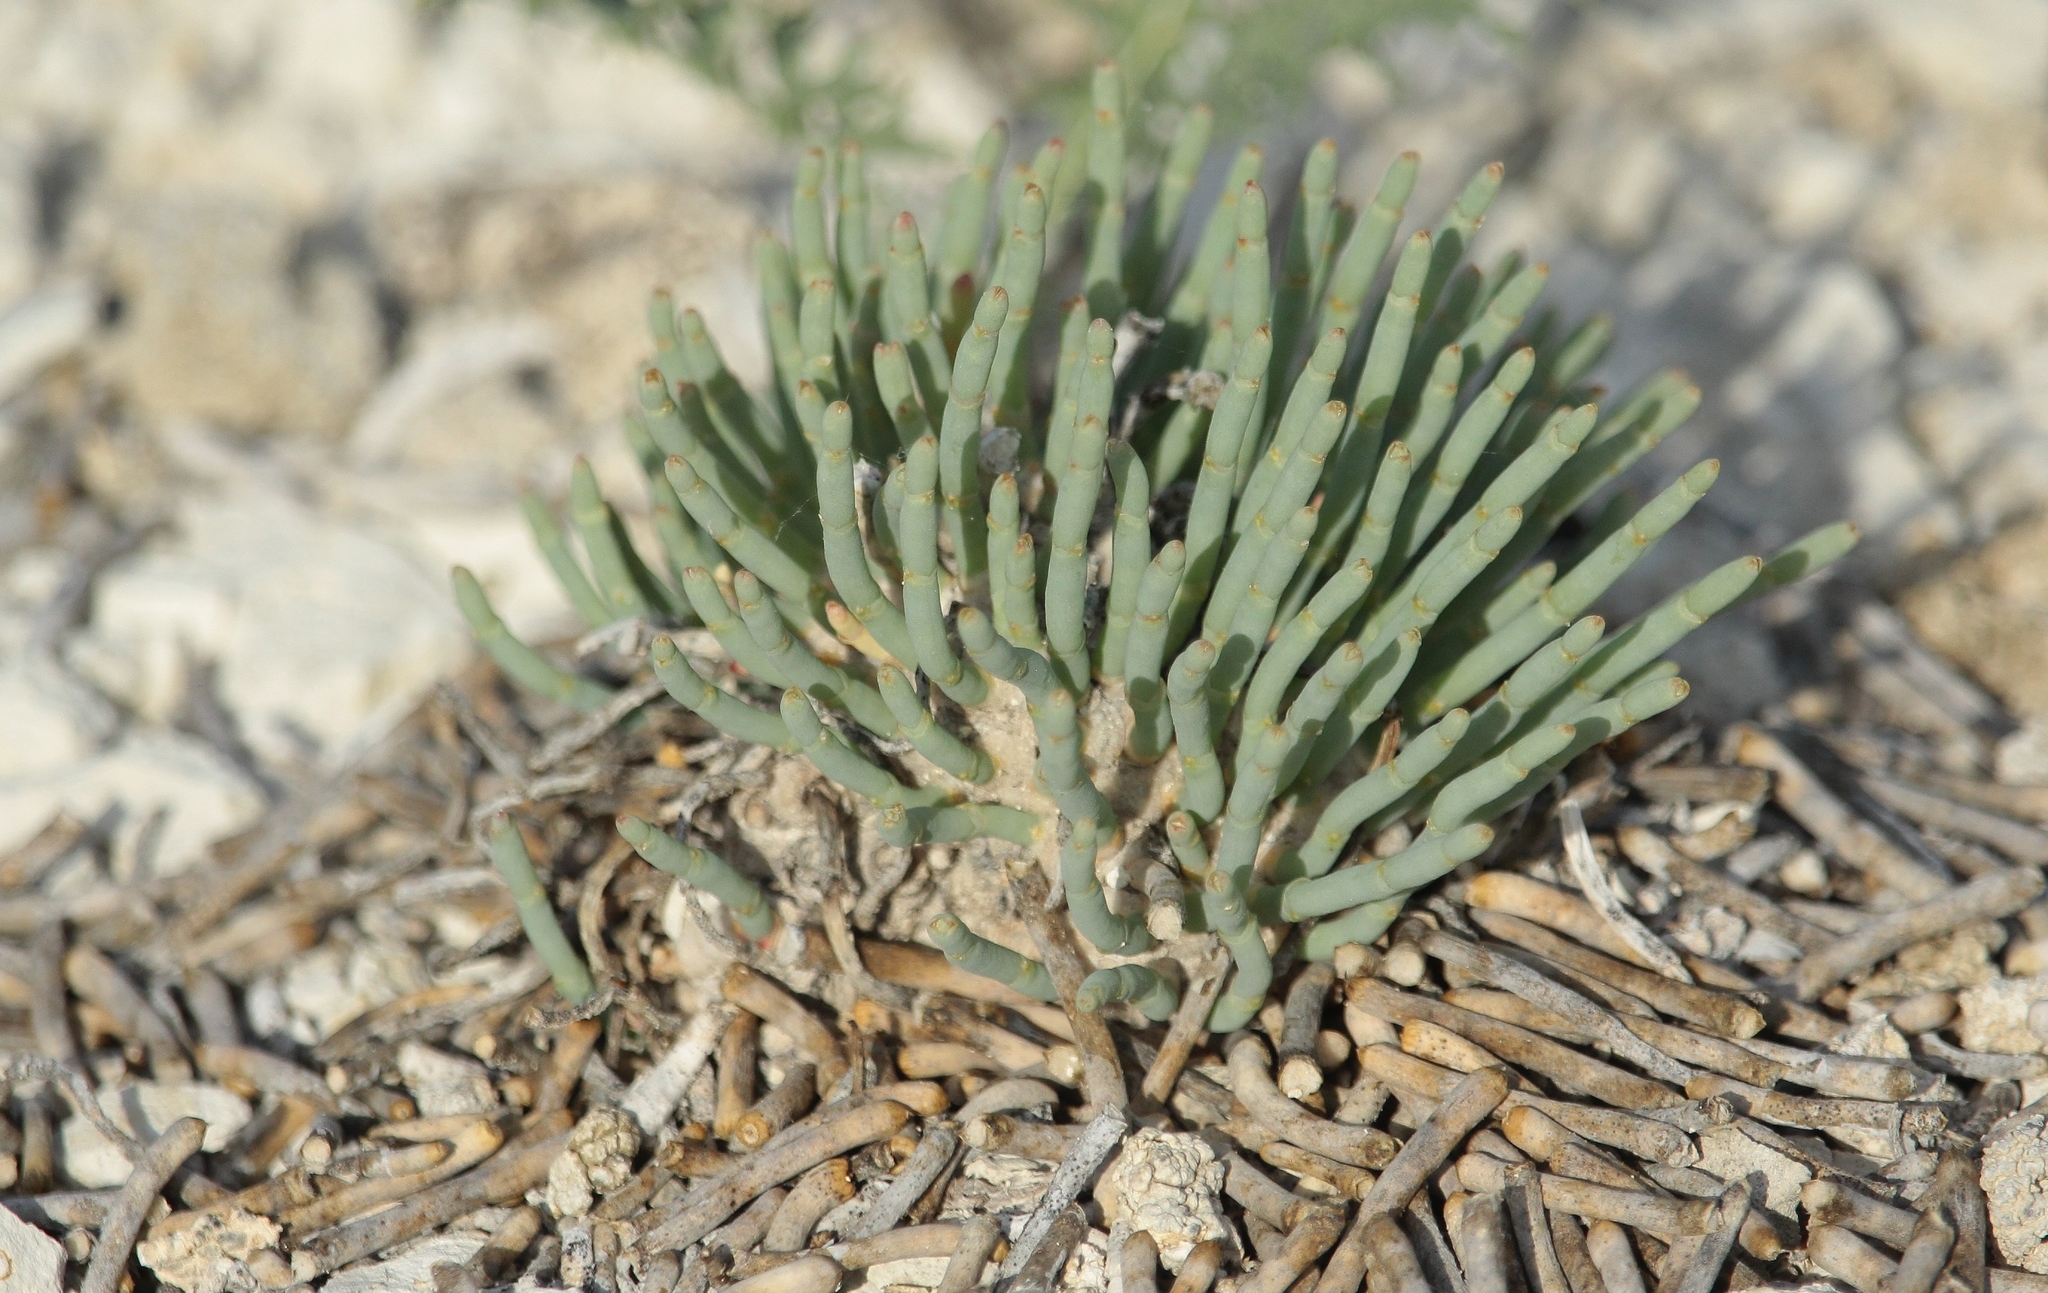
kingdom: Plantae
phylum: Tracheophyta
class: Magnoliopsida
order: Caryophyllales
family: Amaranthaceae
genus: Anabasis
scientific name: Anabasis cretacea
